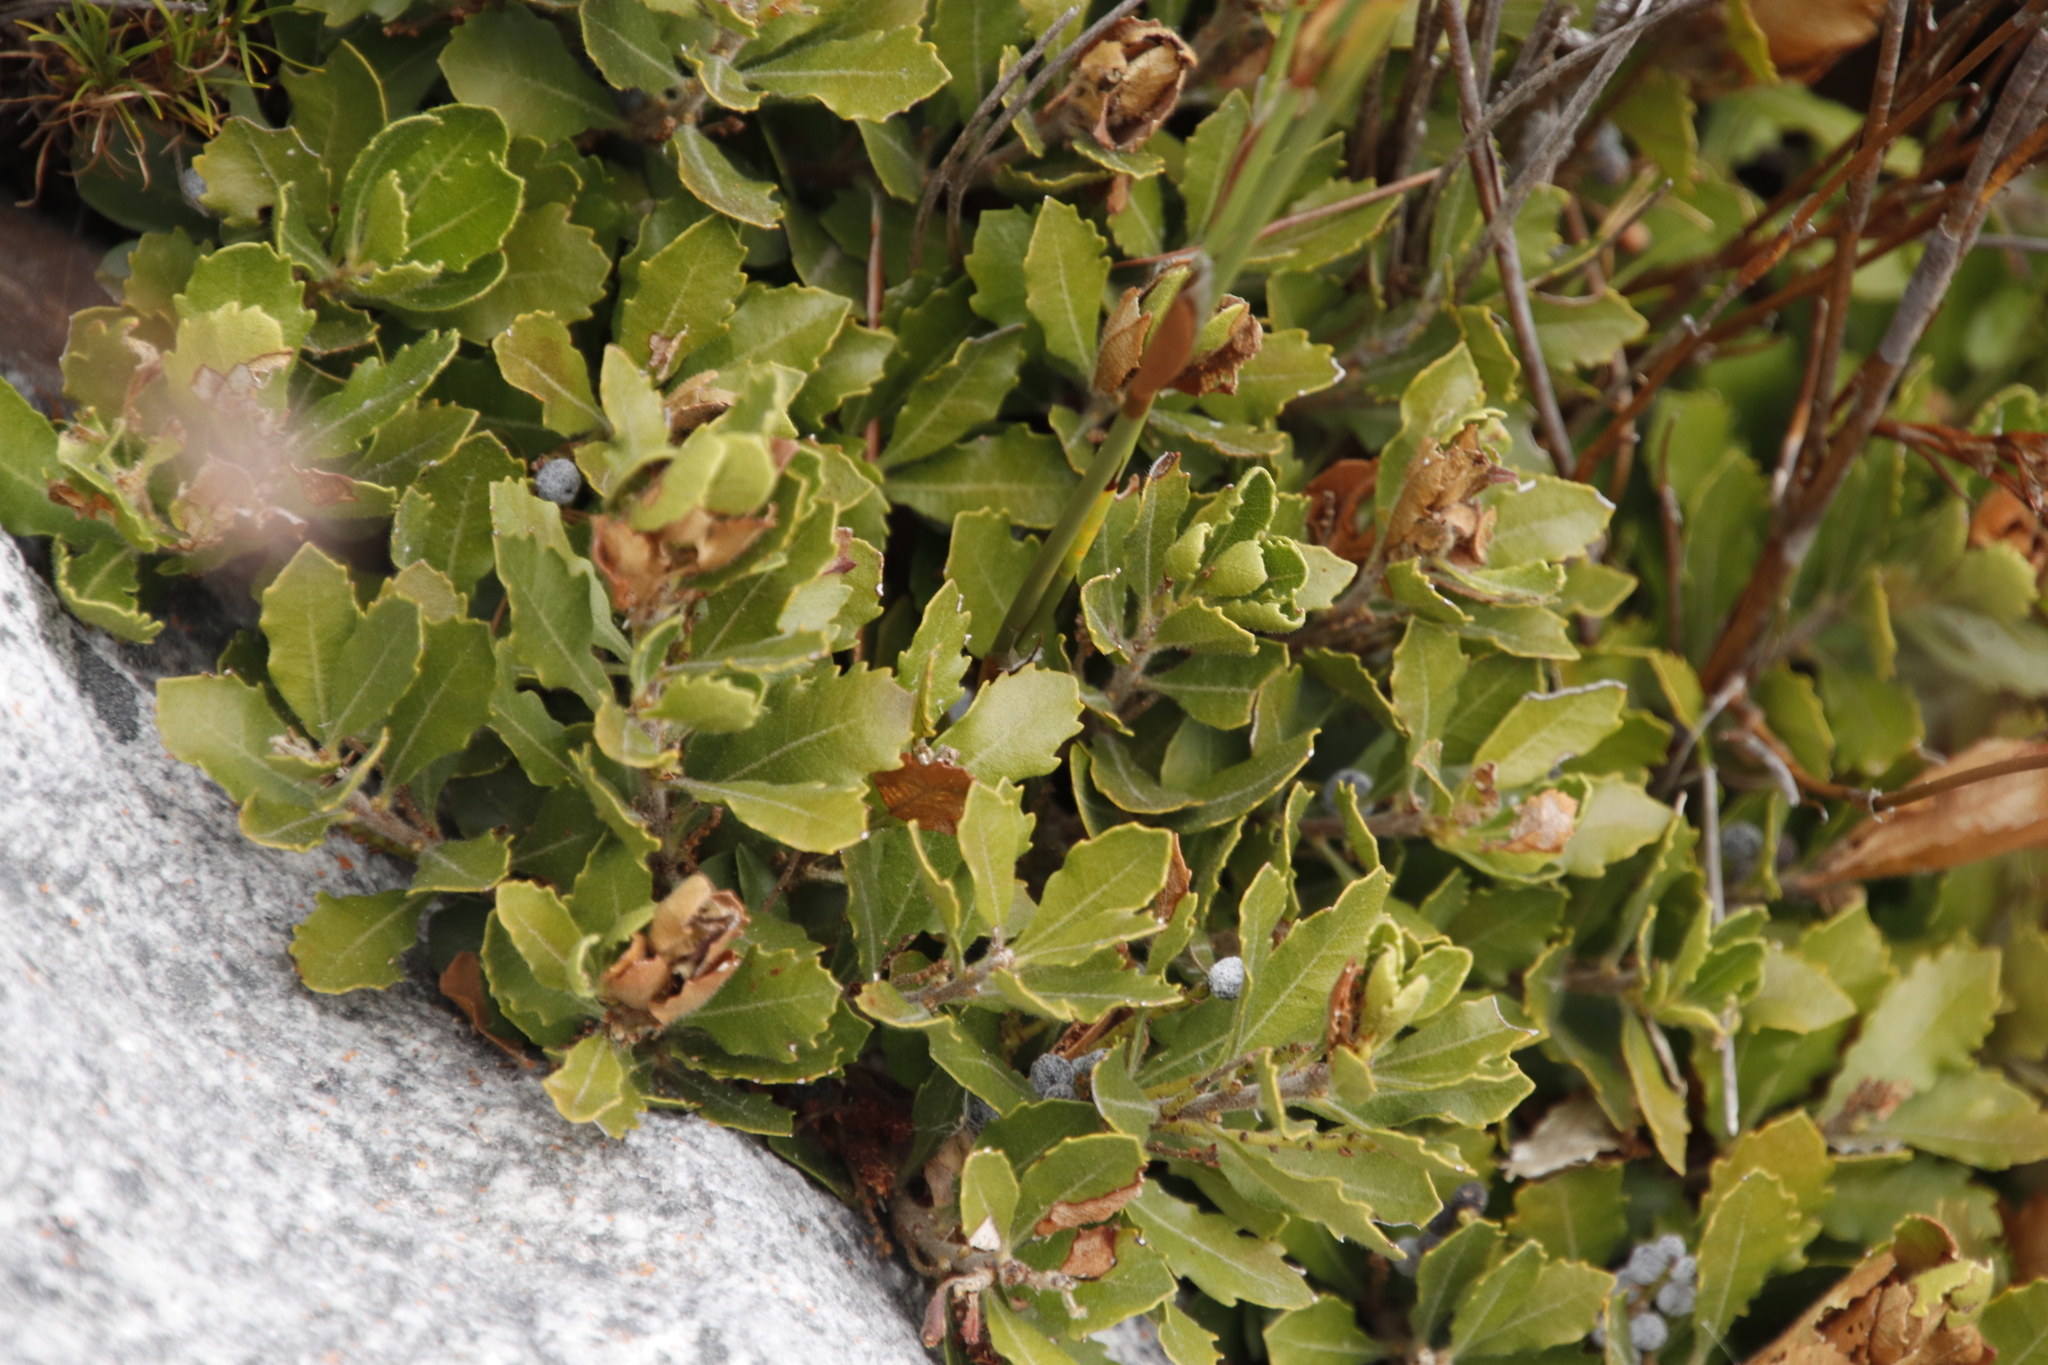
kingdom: Plantae
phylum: Tracheophyta
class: Magnoliopsida
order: Fagales
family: Myricaceae
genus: Morella
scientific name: Morella quercifolia
